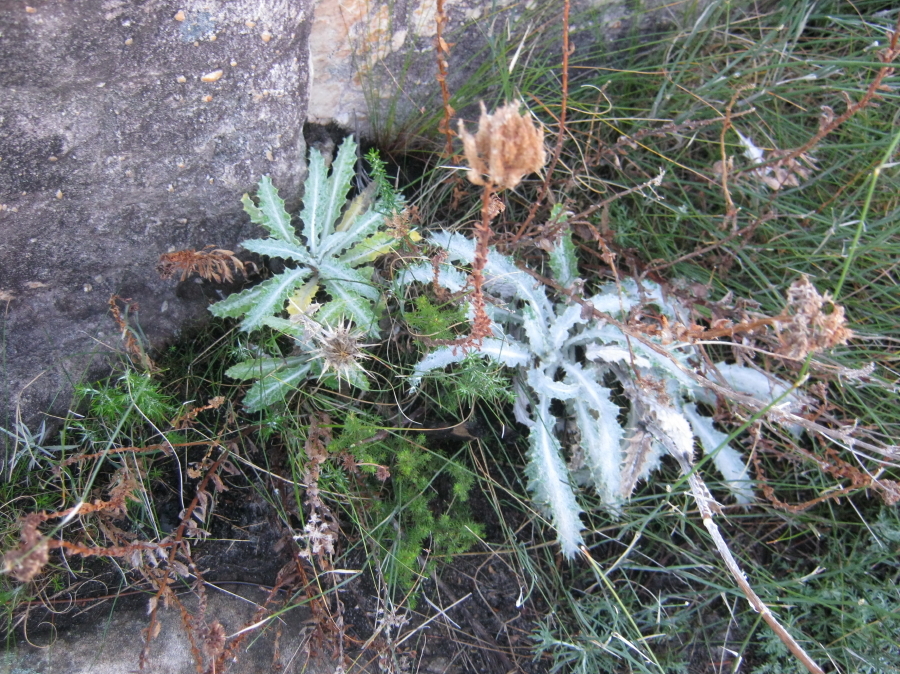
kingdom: Plantae
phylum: Tracheophyta
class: Magnoliopsida
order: Asterales
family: Asteraceae
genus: Berkheya
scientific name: Berkheya francisci
